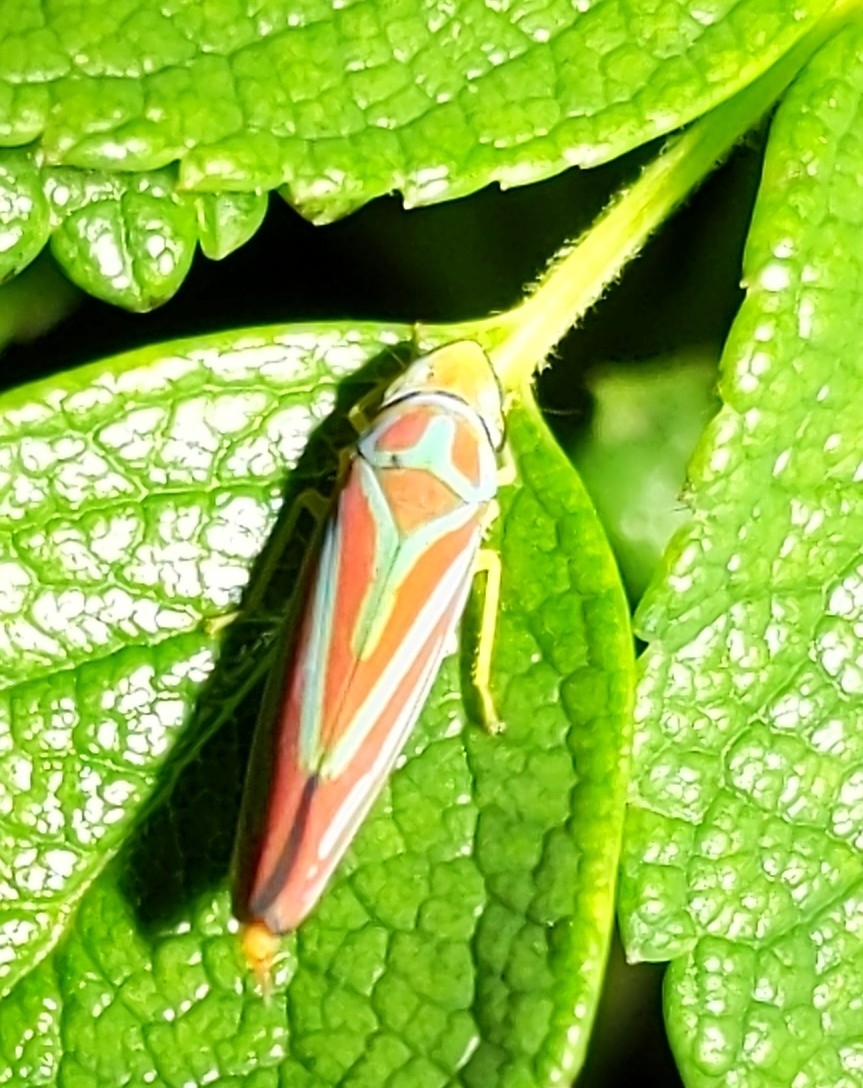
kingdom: Animalia
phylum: Arthropoda
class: Insecta
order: Hemiptera
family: Cicadellidae
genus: Graphocephala
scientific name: Graphocephala coccinea
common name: Candy-striped leafhopper
